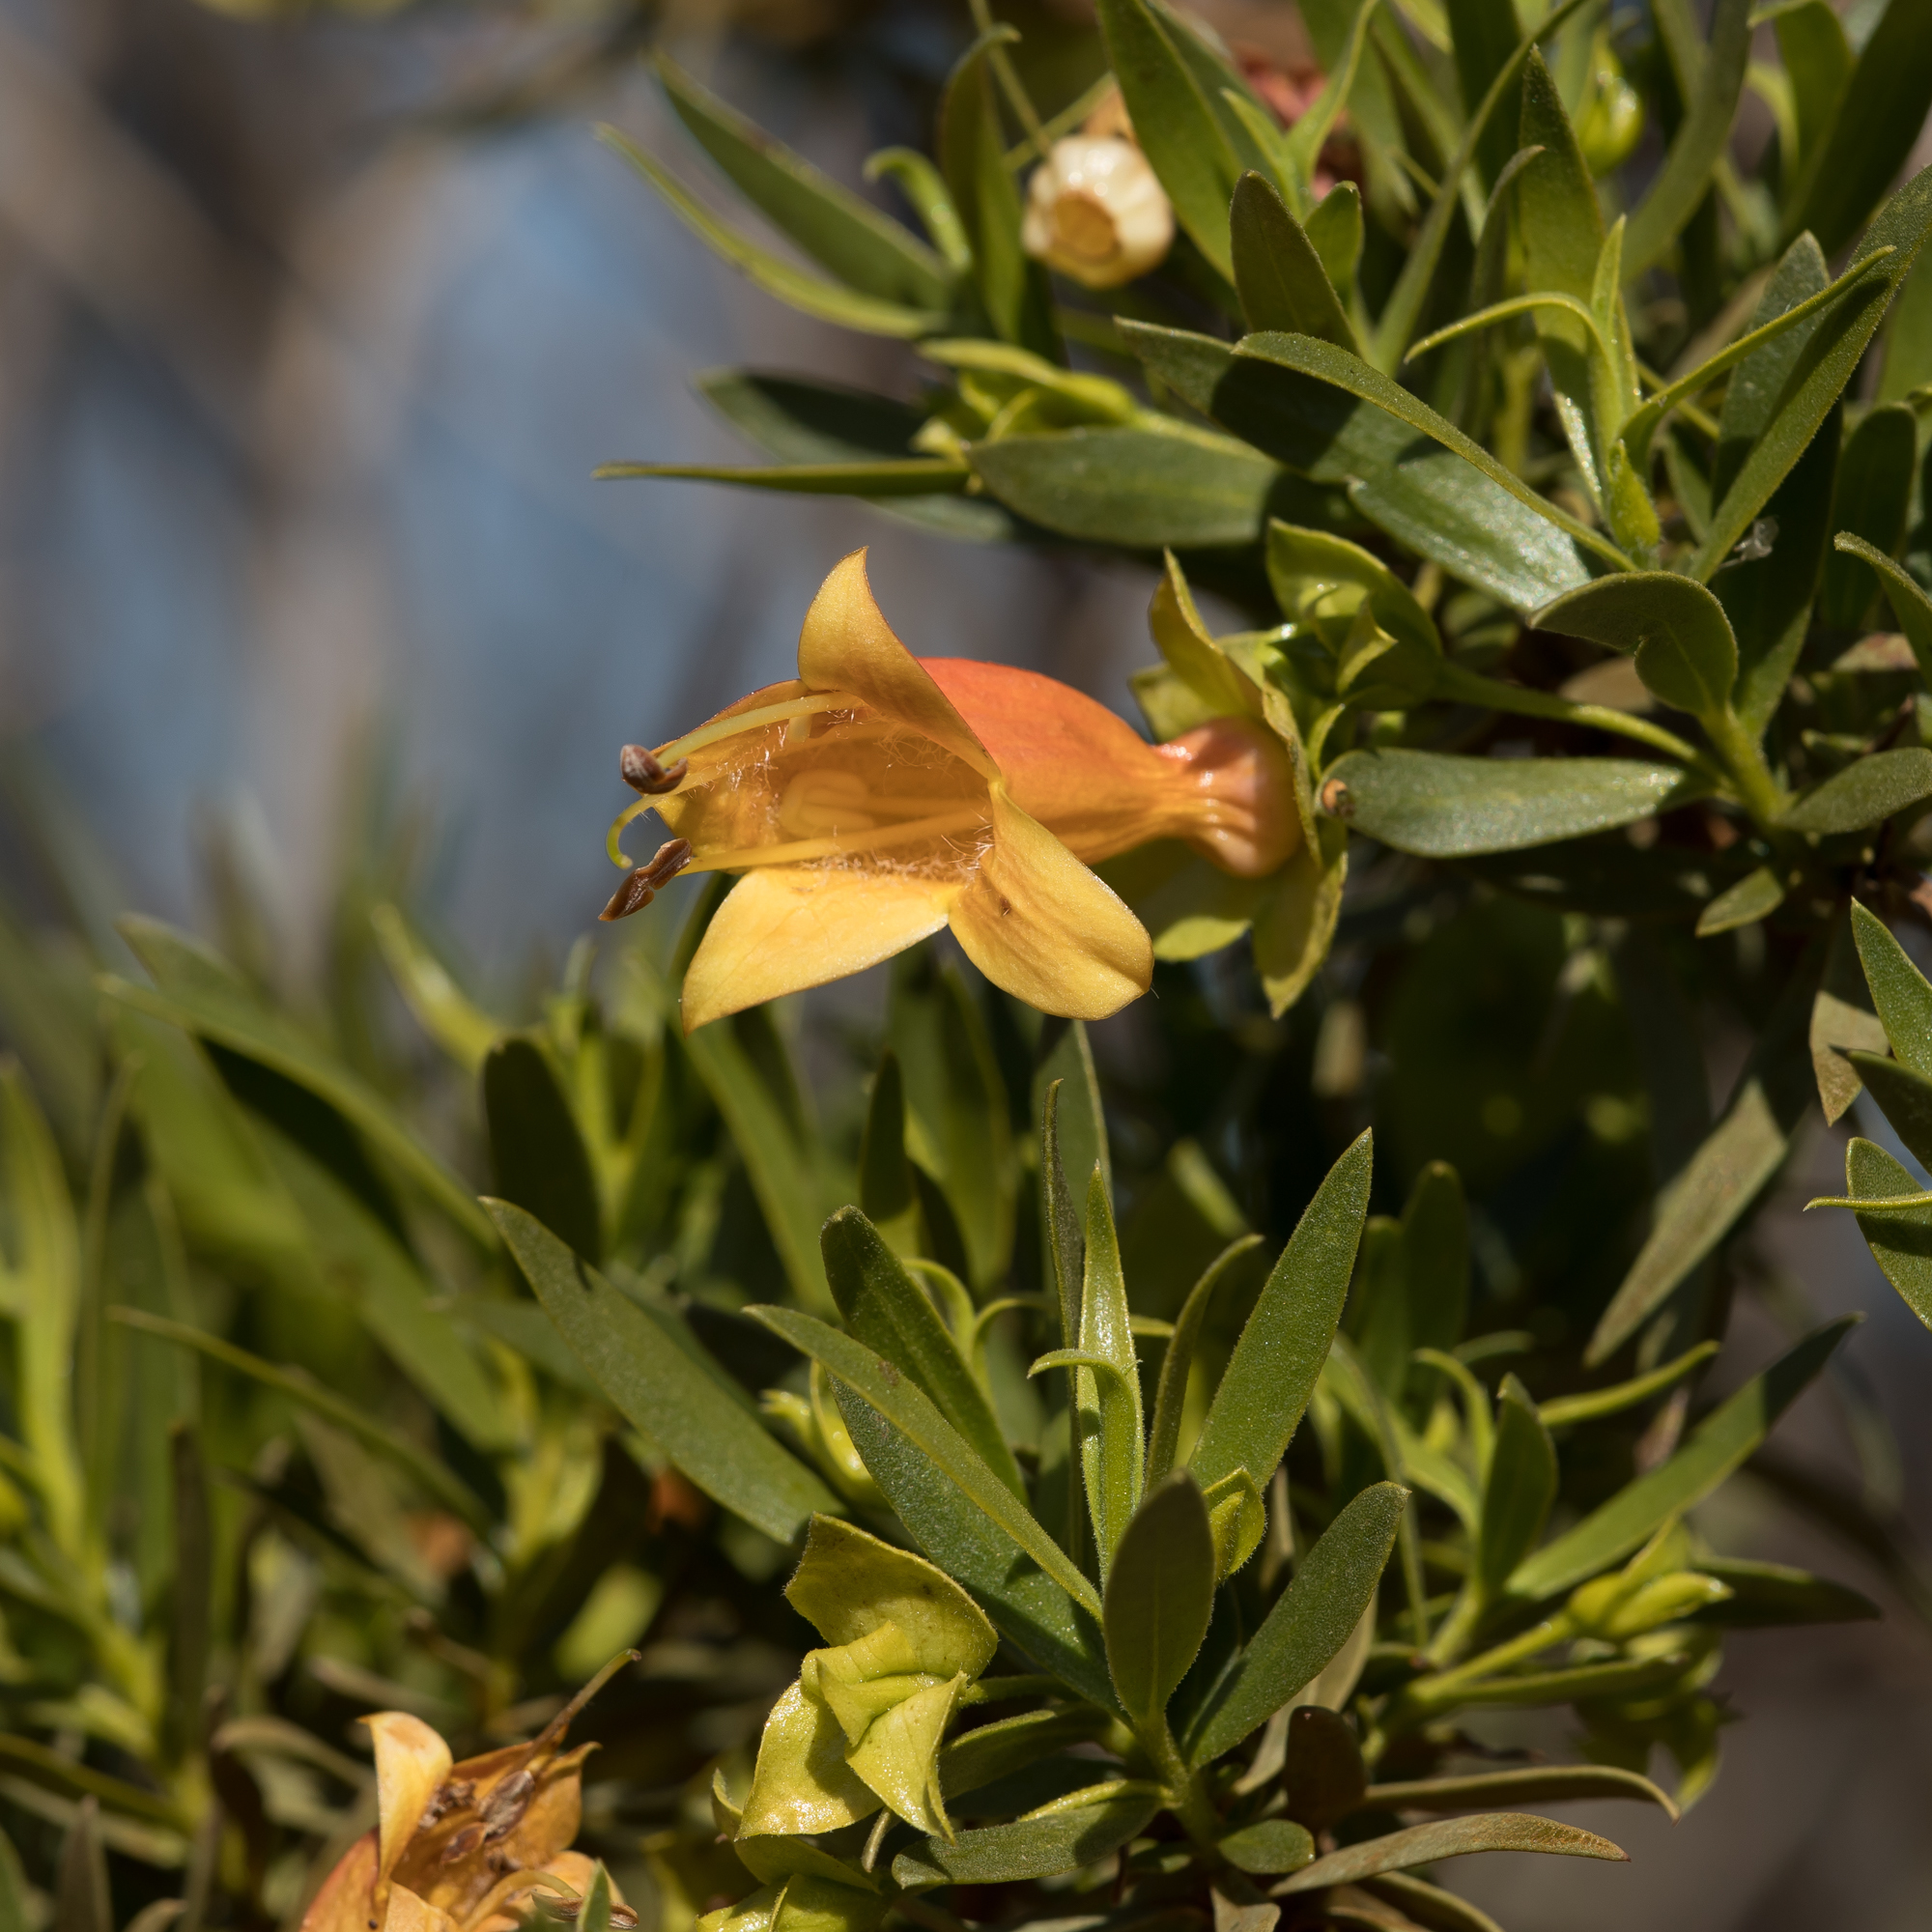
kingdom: Plantae
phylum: Tracheophyta
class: Magnoliopsida
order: Lamiales
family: Scrophulariaceae
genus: Eremophila
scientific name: Eremophila duttonii
